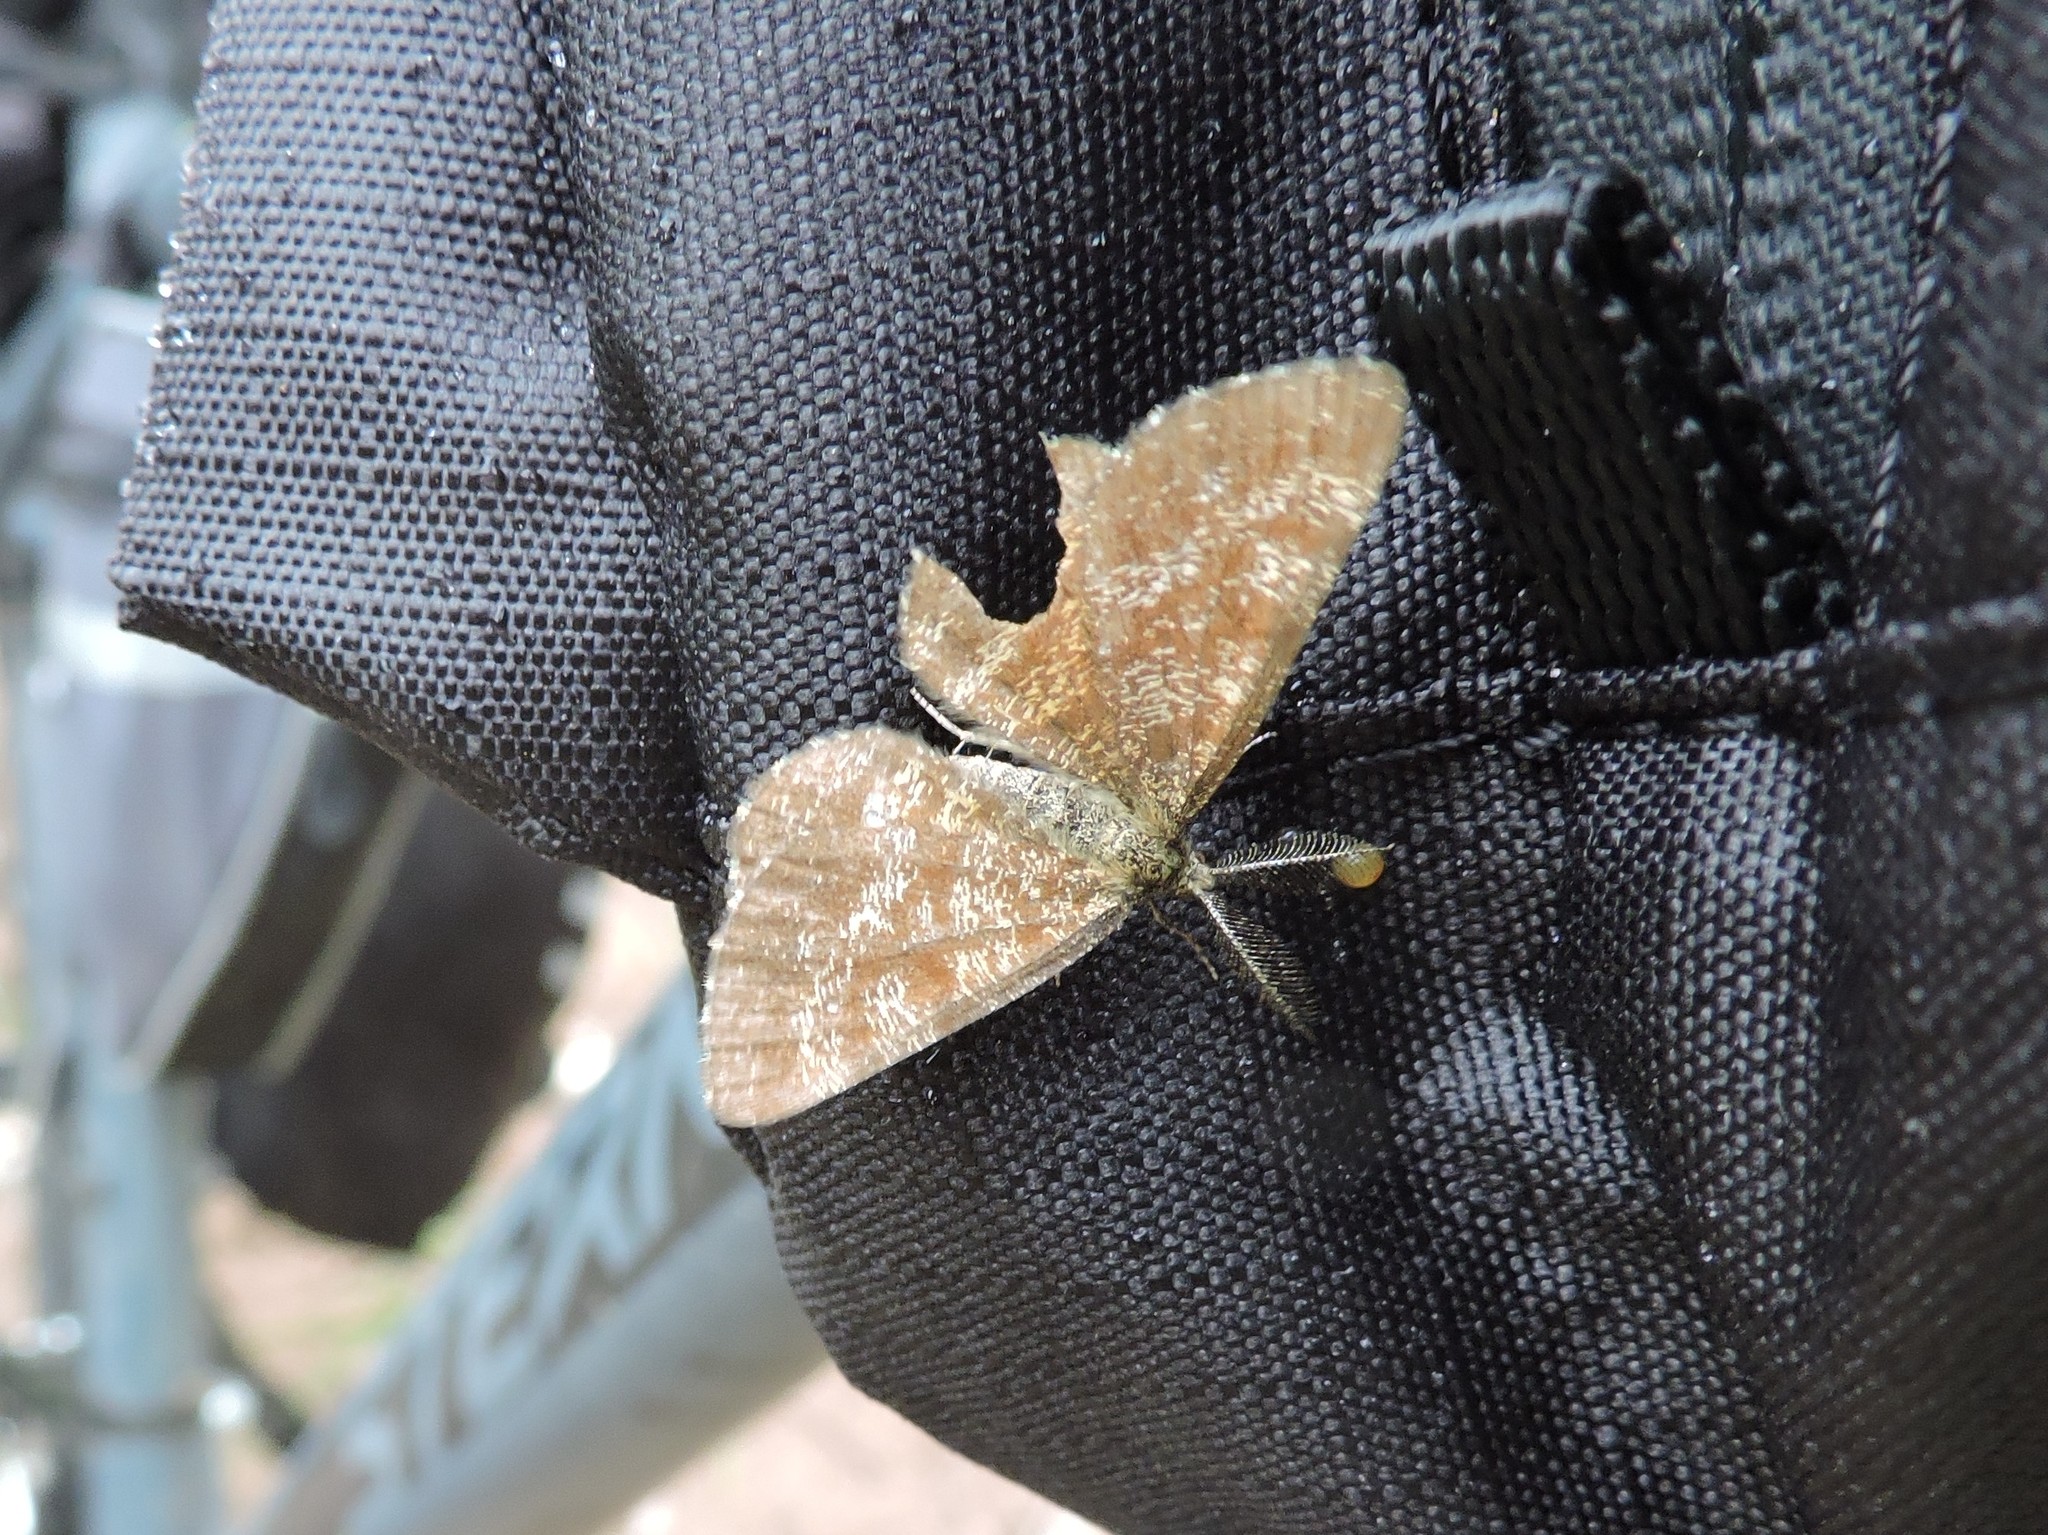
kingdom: Animalia
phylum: Arthropoda
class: Insecta
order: Lepidoptera
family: Geometridae
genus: Ematurga
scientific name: Ematurga atomaria
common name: Common heath
